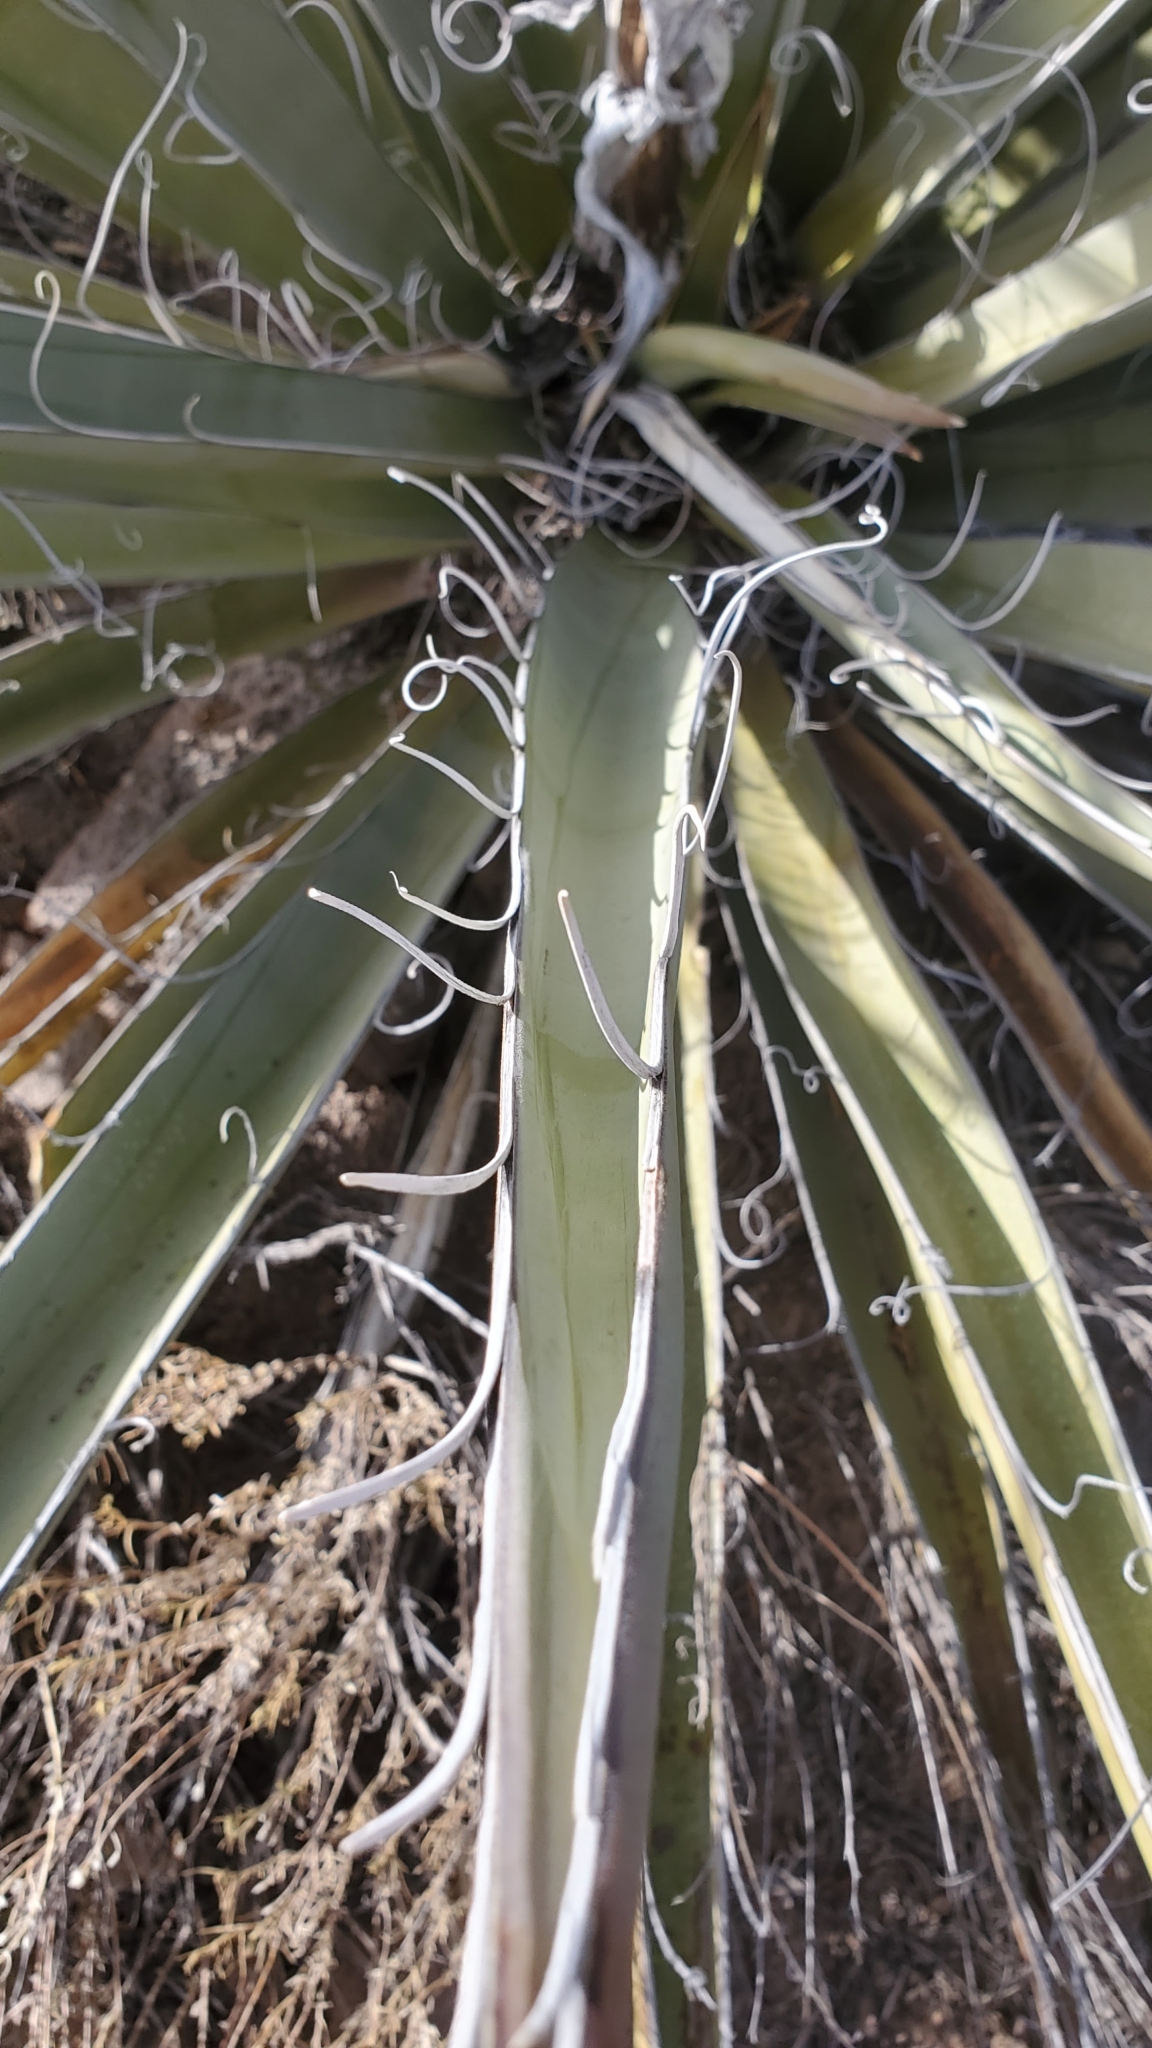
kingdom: Plantae
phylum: Tracheophyta
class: Liliopsida
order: Asparagales
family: Asparagaceae
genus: Yucca
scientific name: Yucca baccata
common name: Banana yucca
